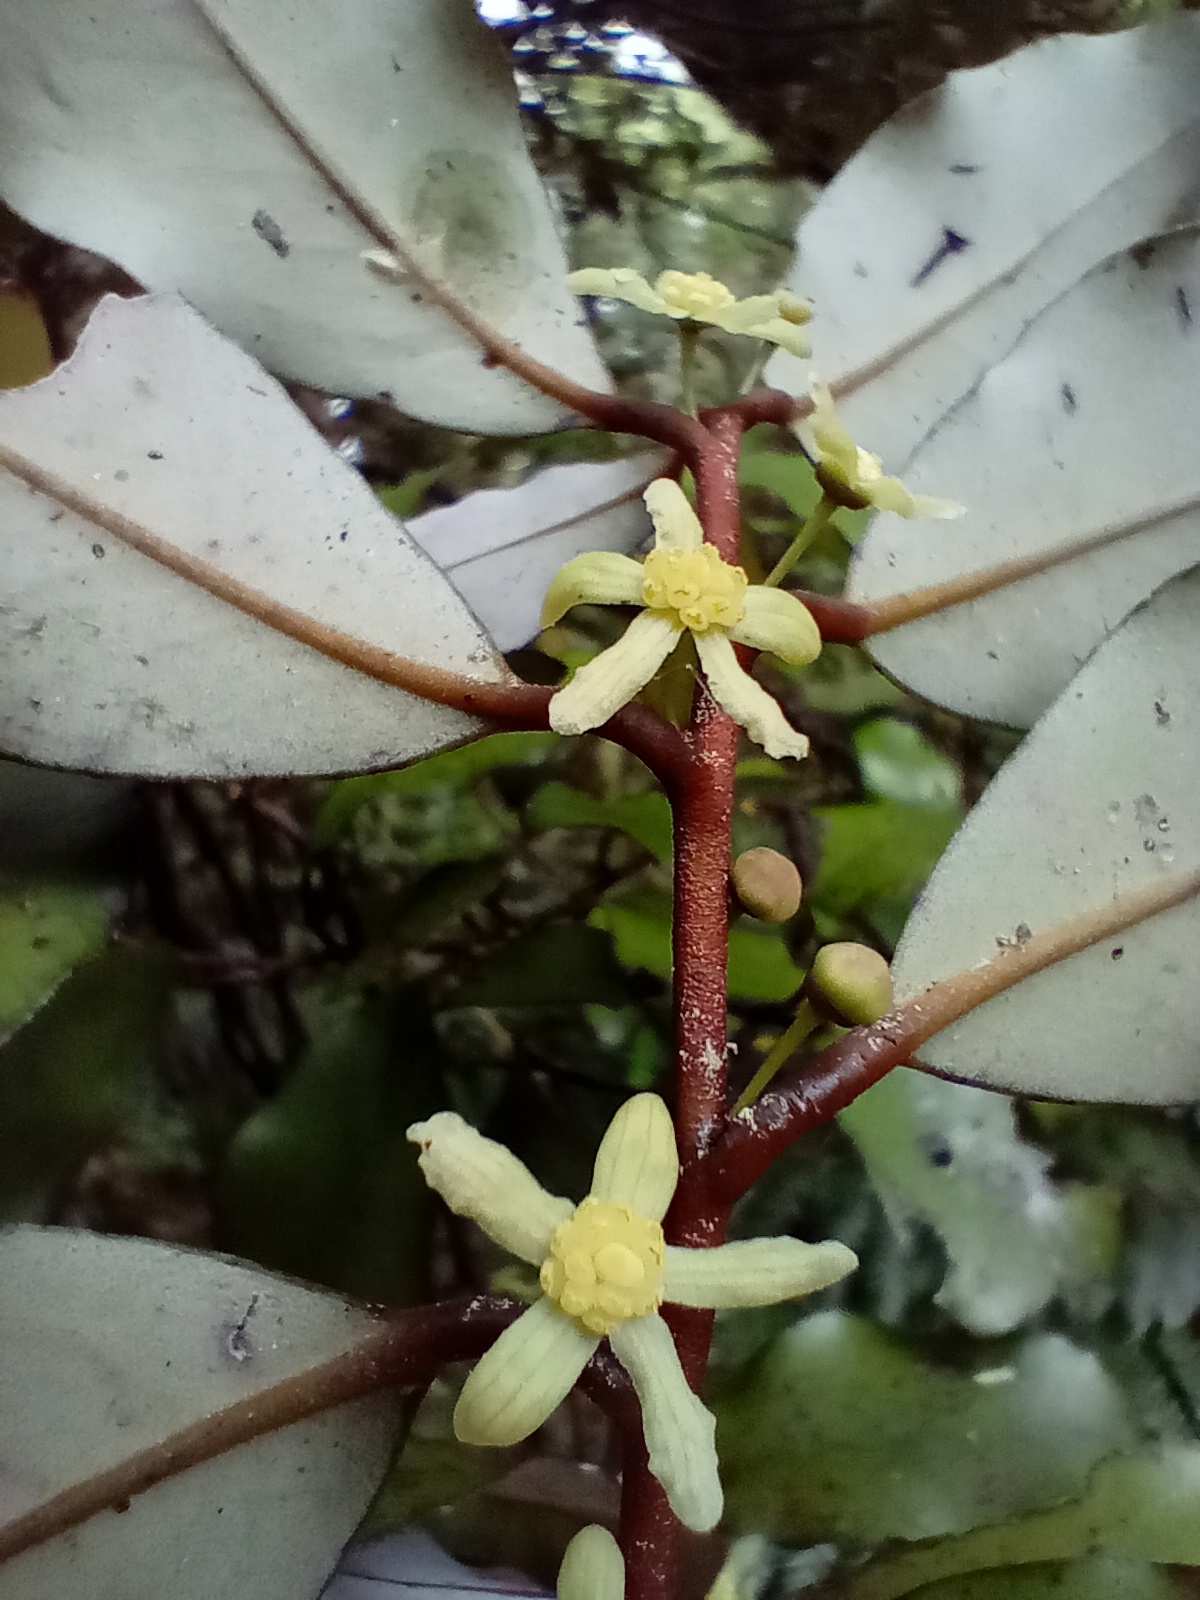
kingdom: Plantae
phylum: Tracheophyta
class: Magnoliopsida
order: Canellales
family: Winteraceae
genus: Pseudowintera
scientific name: Pseudowintera colorata
